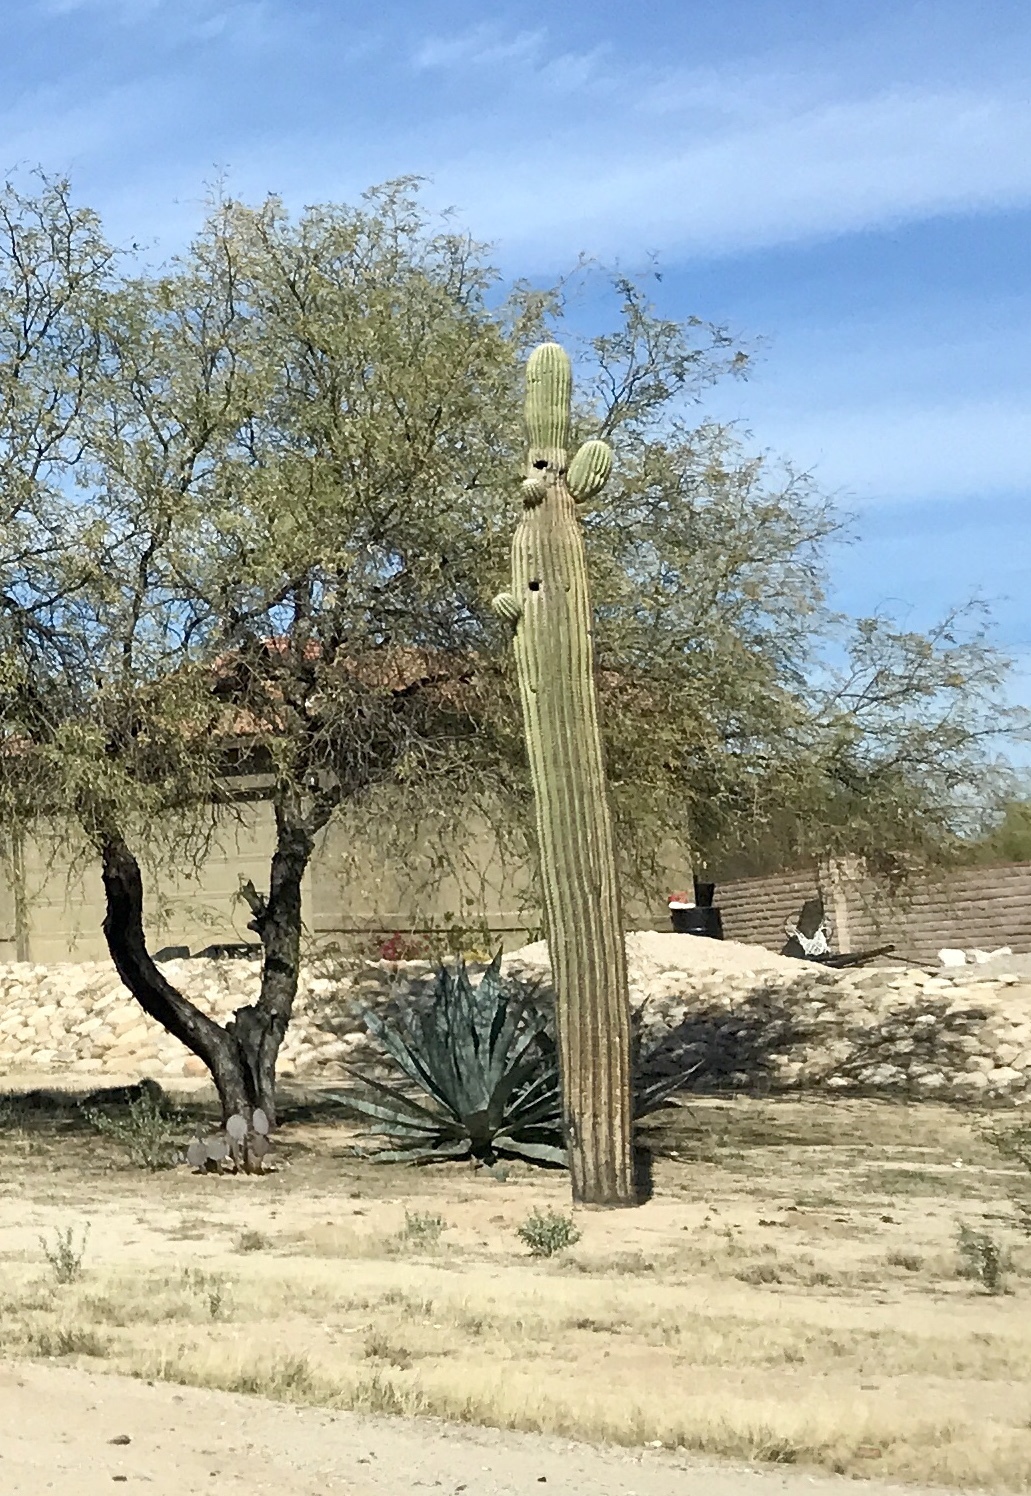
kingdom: Plantae
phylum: Tracheophyta
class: Magnoliopsida
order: Caryophyllales
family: Cactaceae
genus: Carnegiea
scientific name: Carnegiea gigantea
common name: Saguaro
